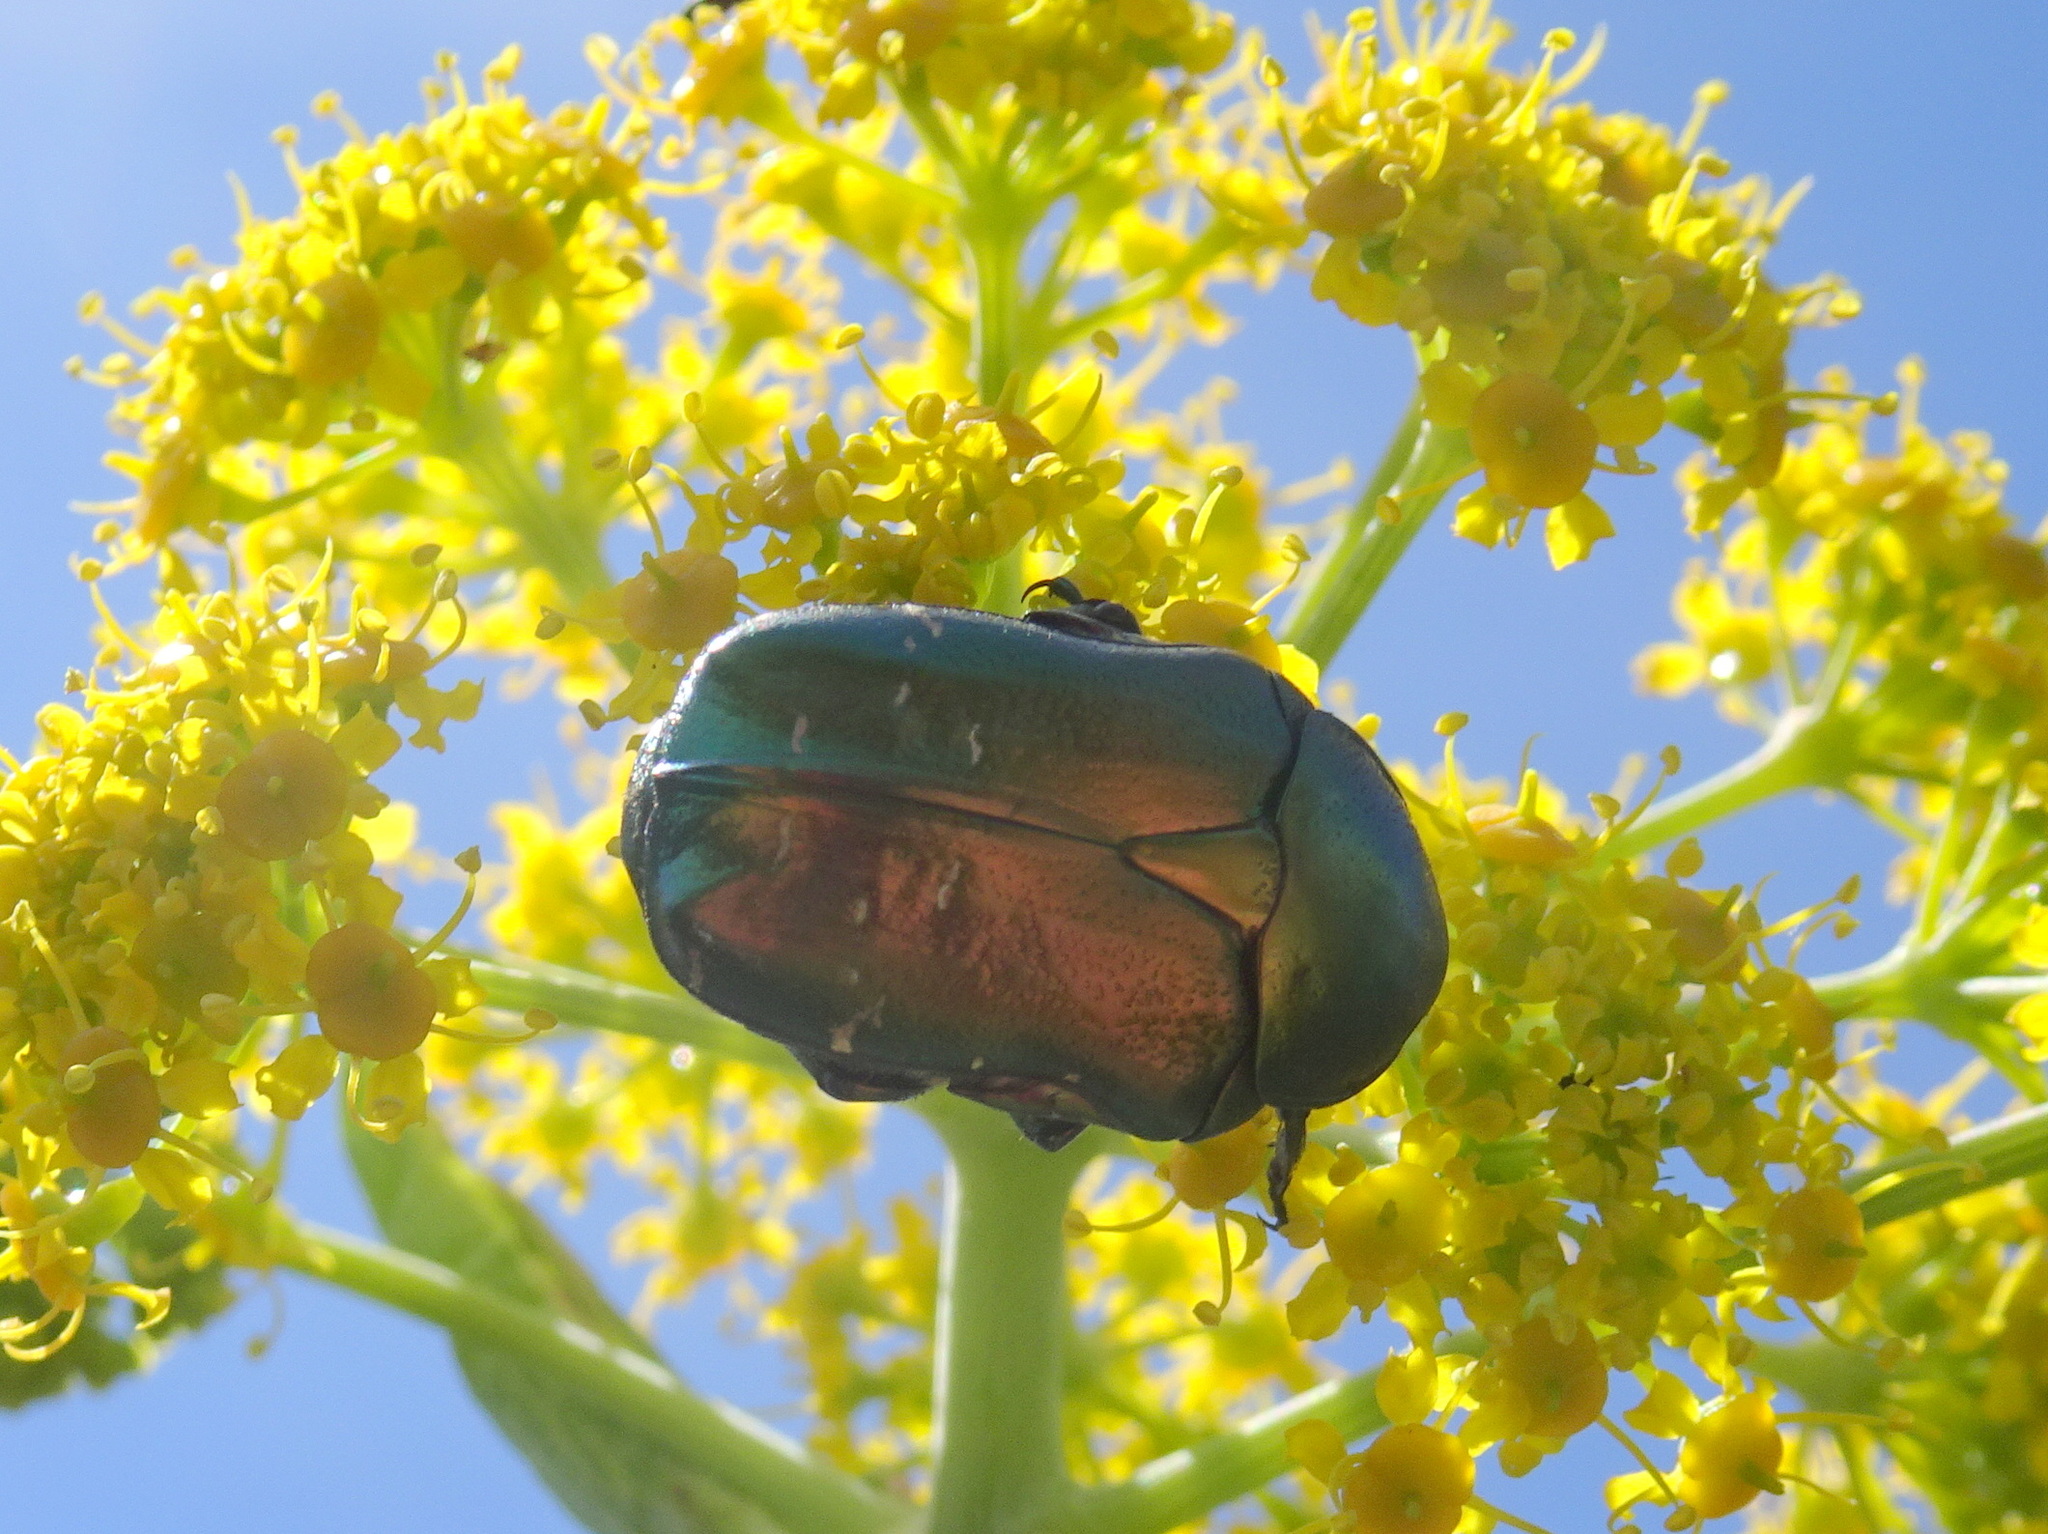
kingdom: Animalia
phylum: Arthropoda
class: Insecta
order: Coleoptera
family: Scarabaeidae
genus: Cetonia
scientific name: Cetonia aurata
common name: Rose chafer
